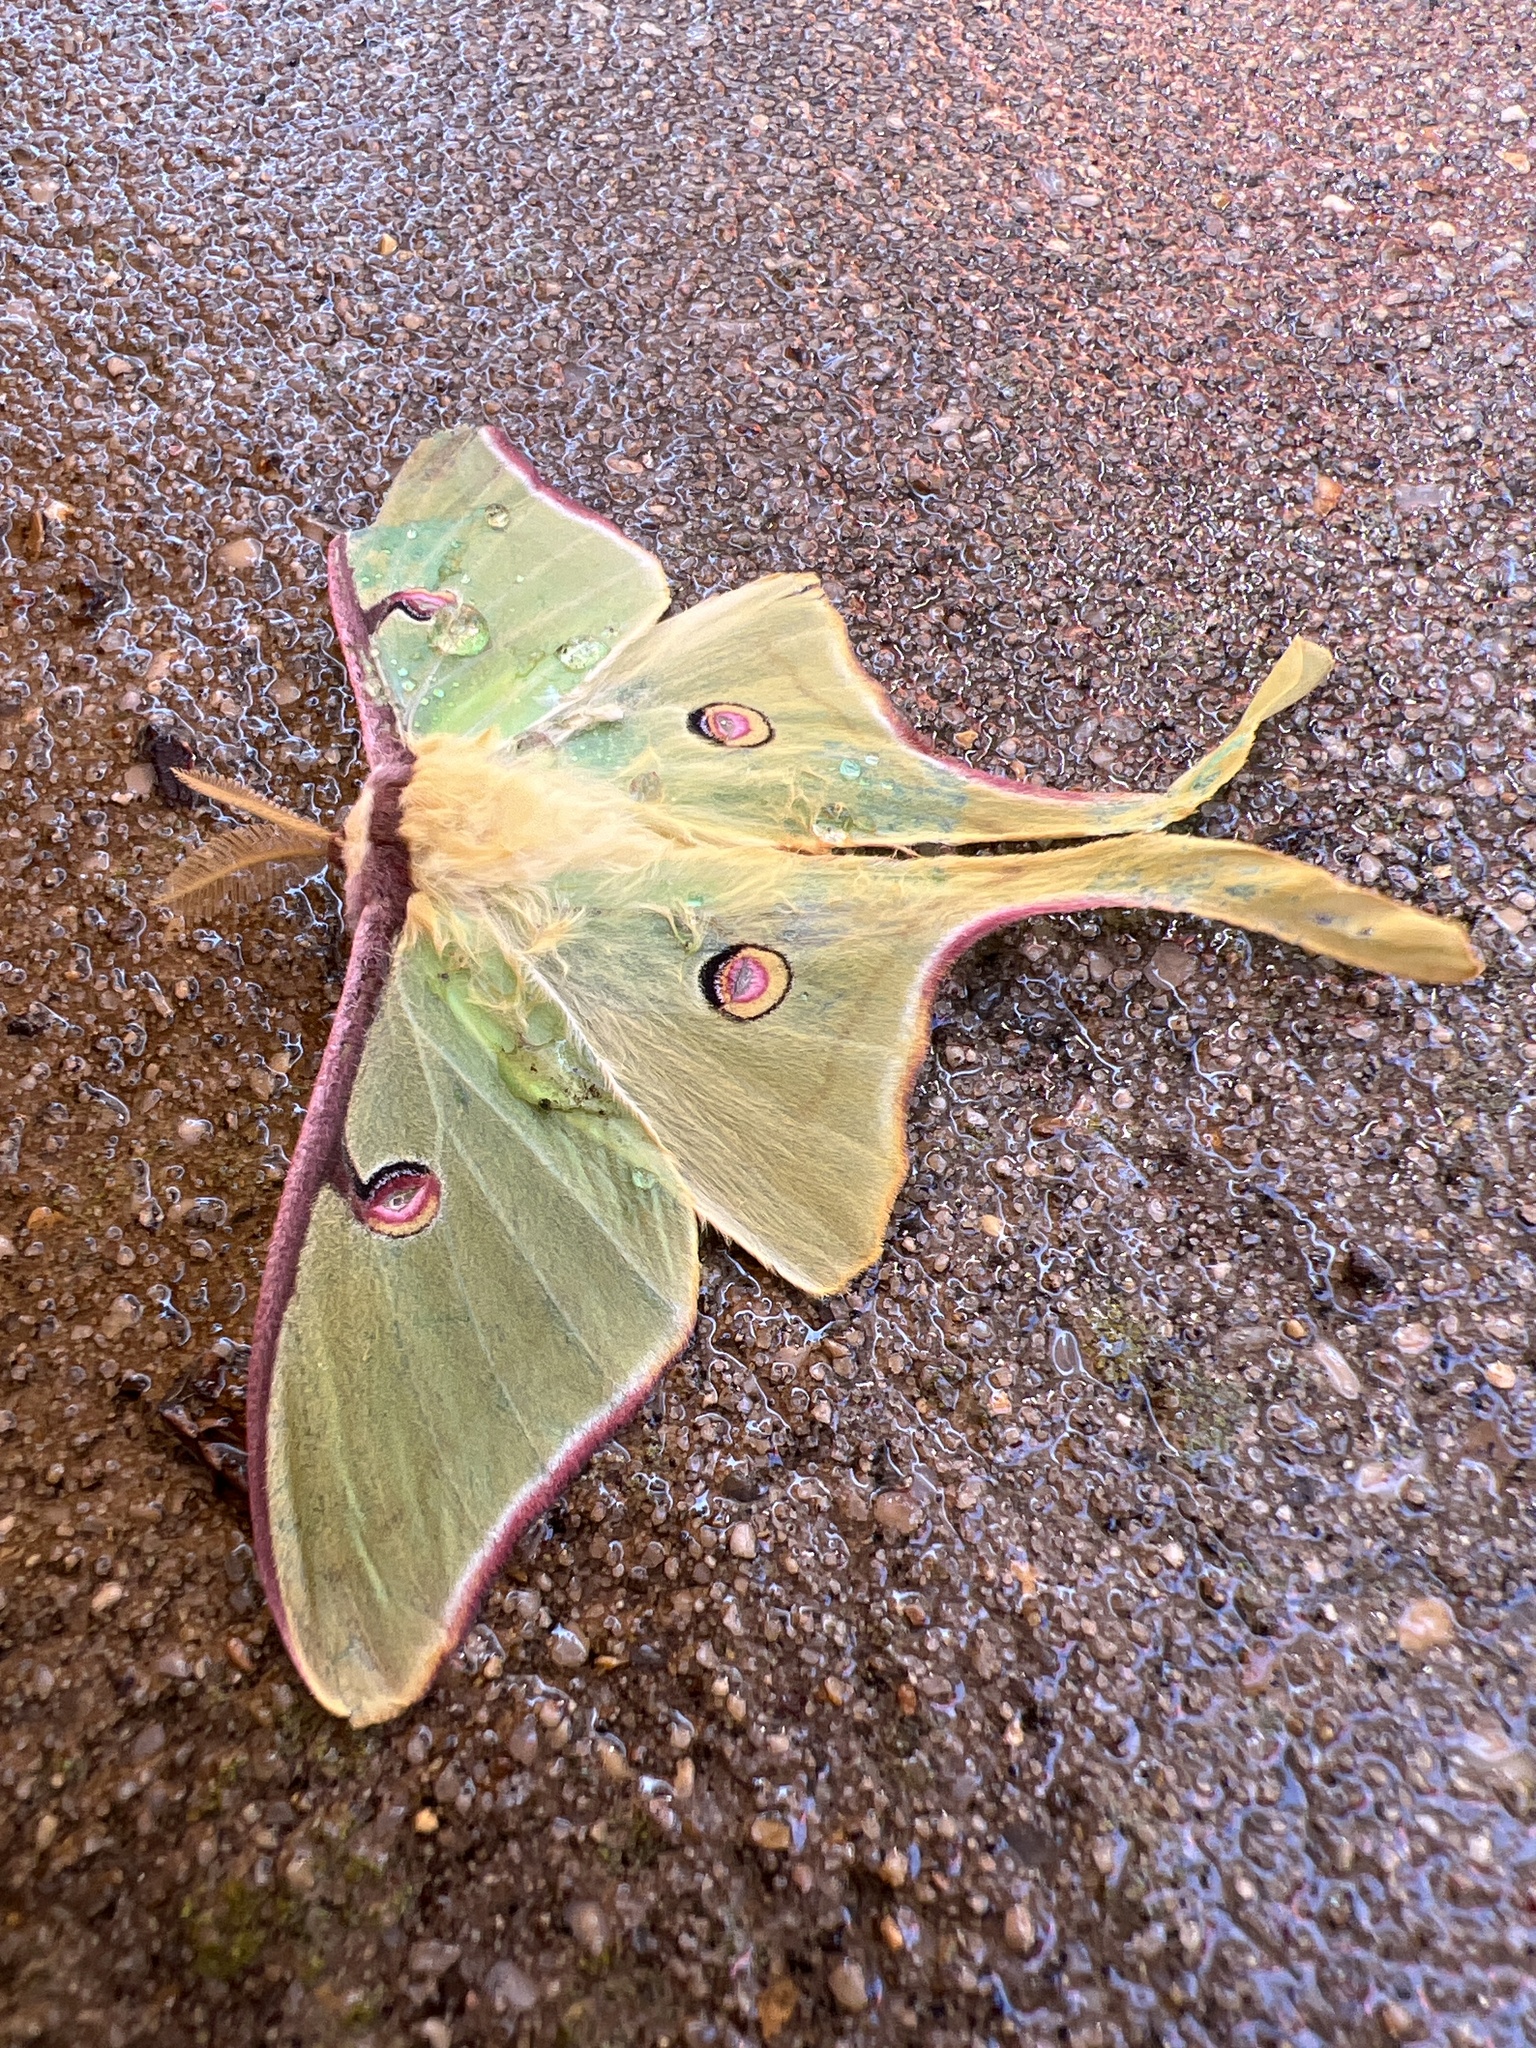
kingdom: Animalia
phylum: Arthropoda
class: Insecta
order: Lepidoptera
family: Saturniidae
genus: Actias
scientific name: Actias luna
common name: Luna moth
